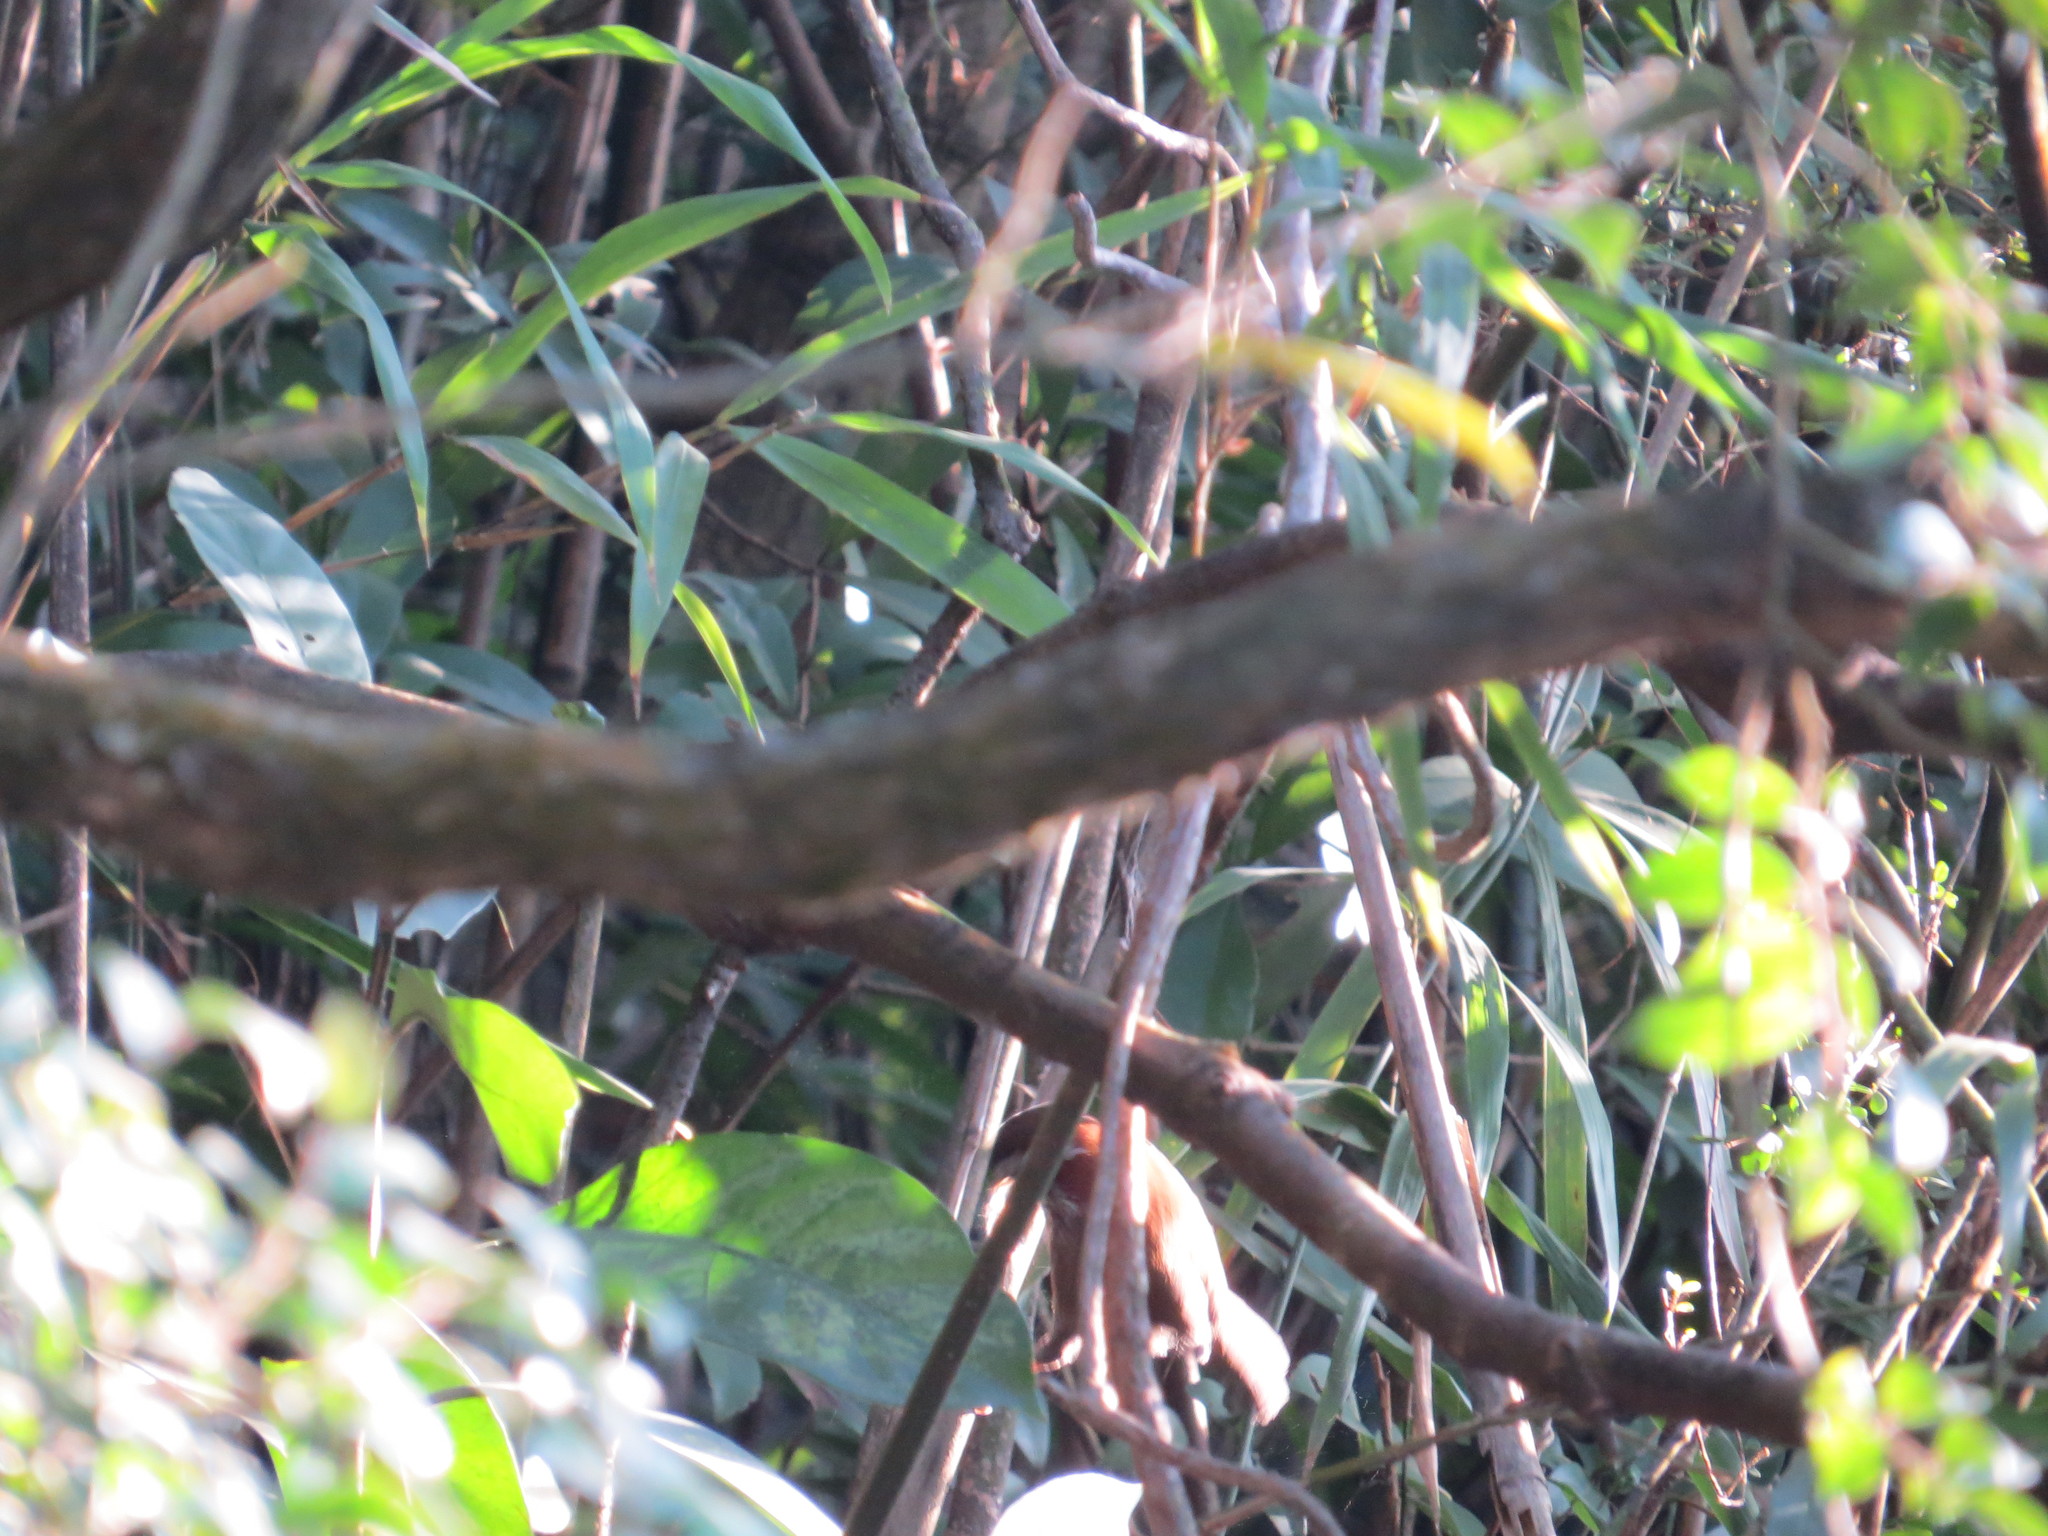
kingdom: Animalia
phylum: Chordata
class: Aves
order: Passeriformes
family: Timaliidae
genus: Pomatorhinus
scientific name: Pomatorhinus ruficollis
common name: Streak-breasted scimitar babbler
